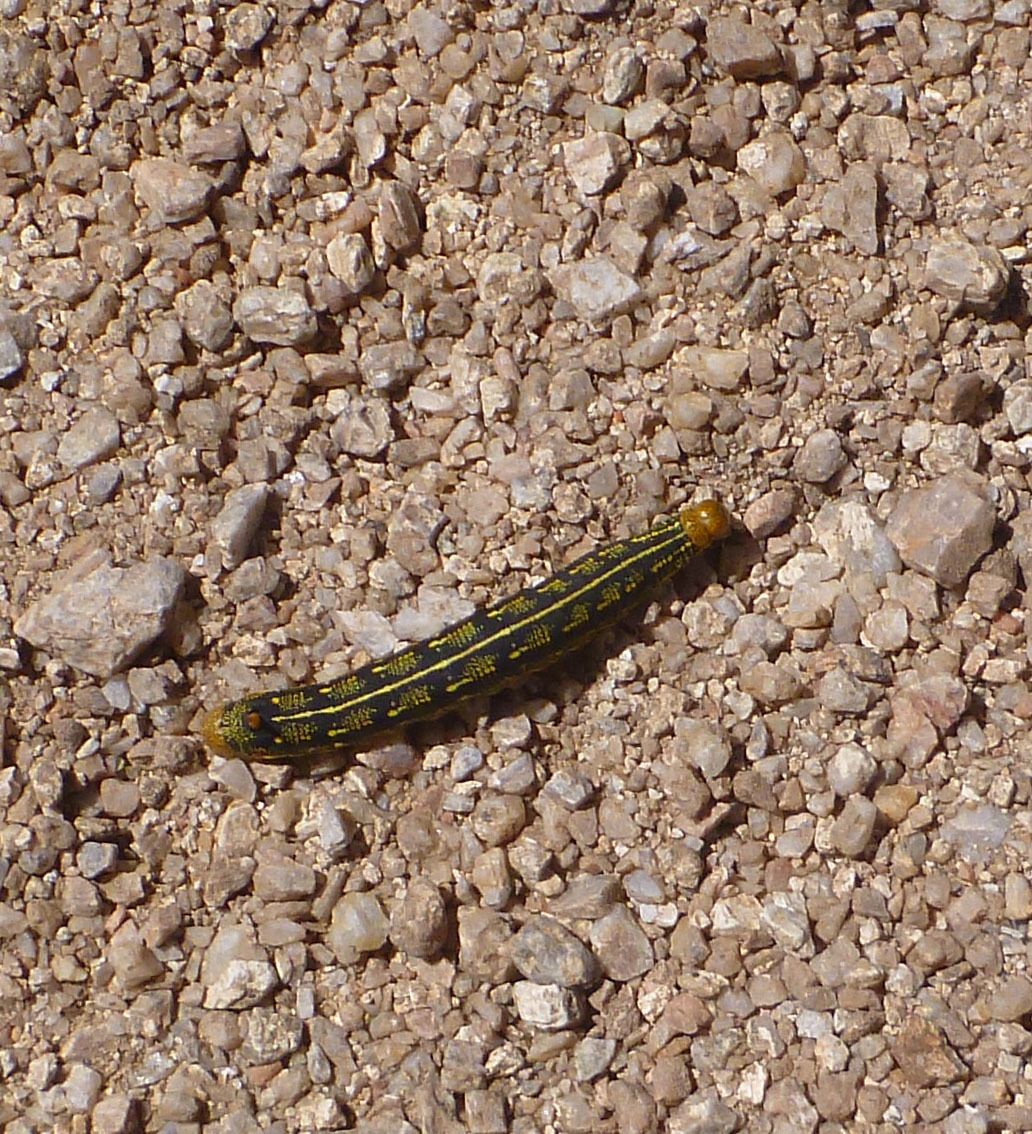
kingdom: Animalia
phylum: Arthropoda
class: Insecta
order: Lepidoptera
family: Sphingidae
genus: Hyles
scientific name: Hyles lineata
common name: White-lined sphinx
